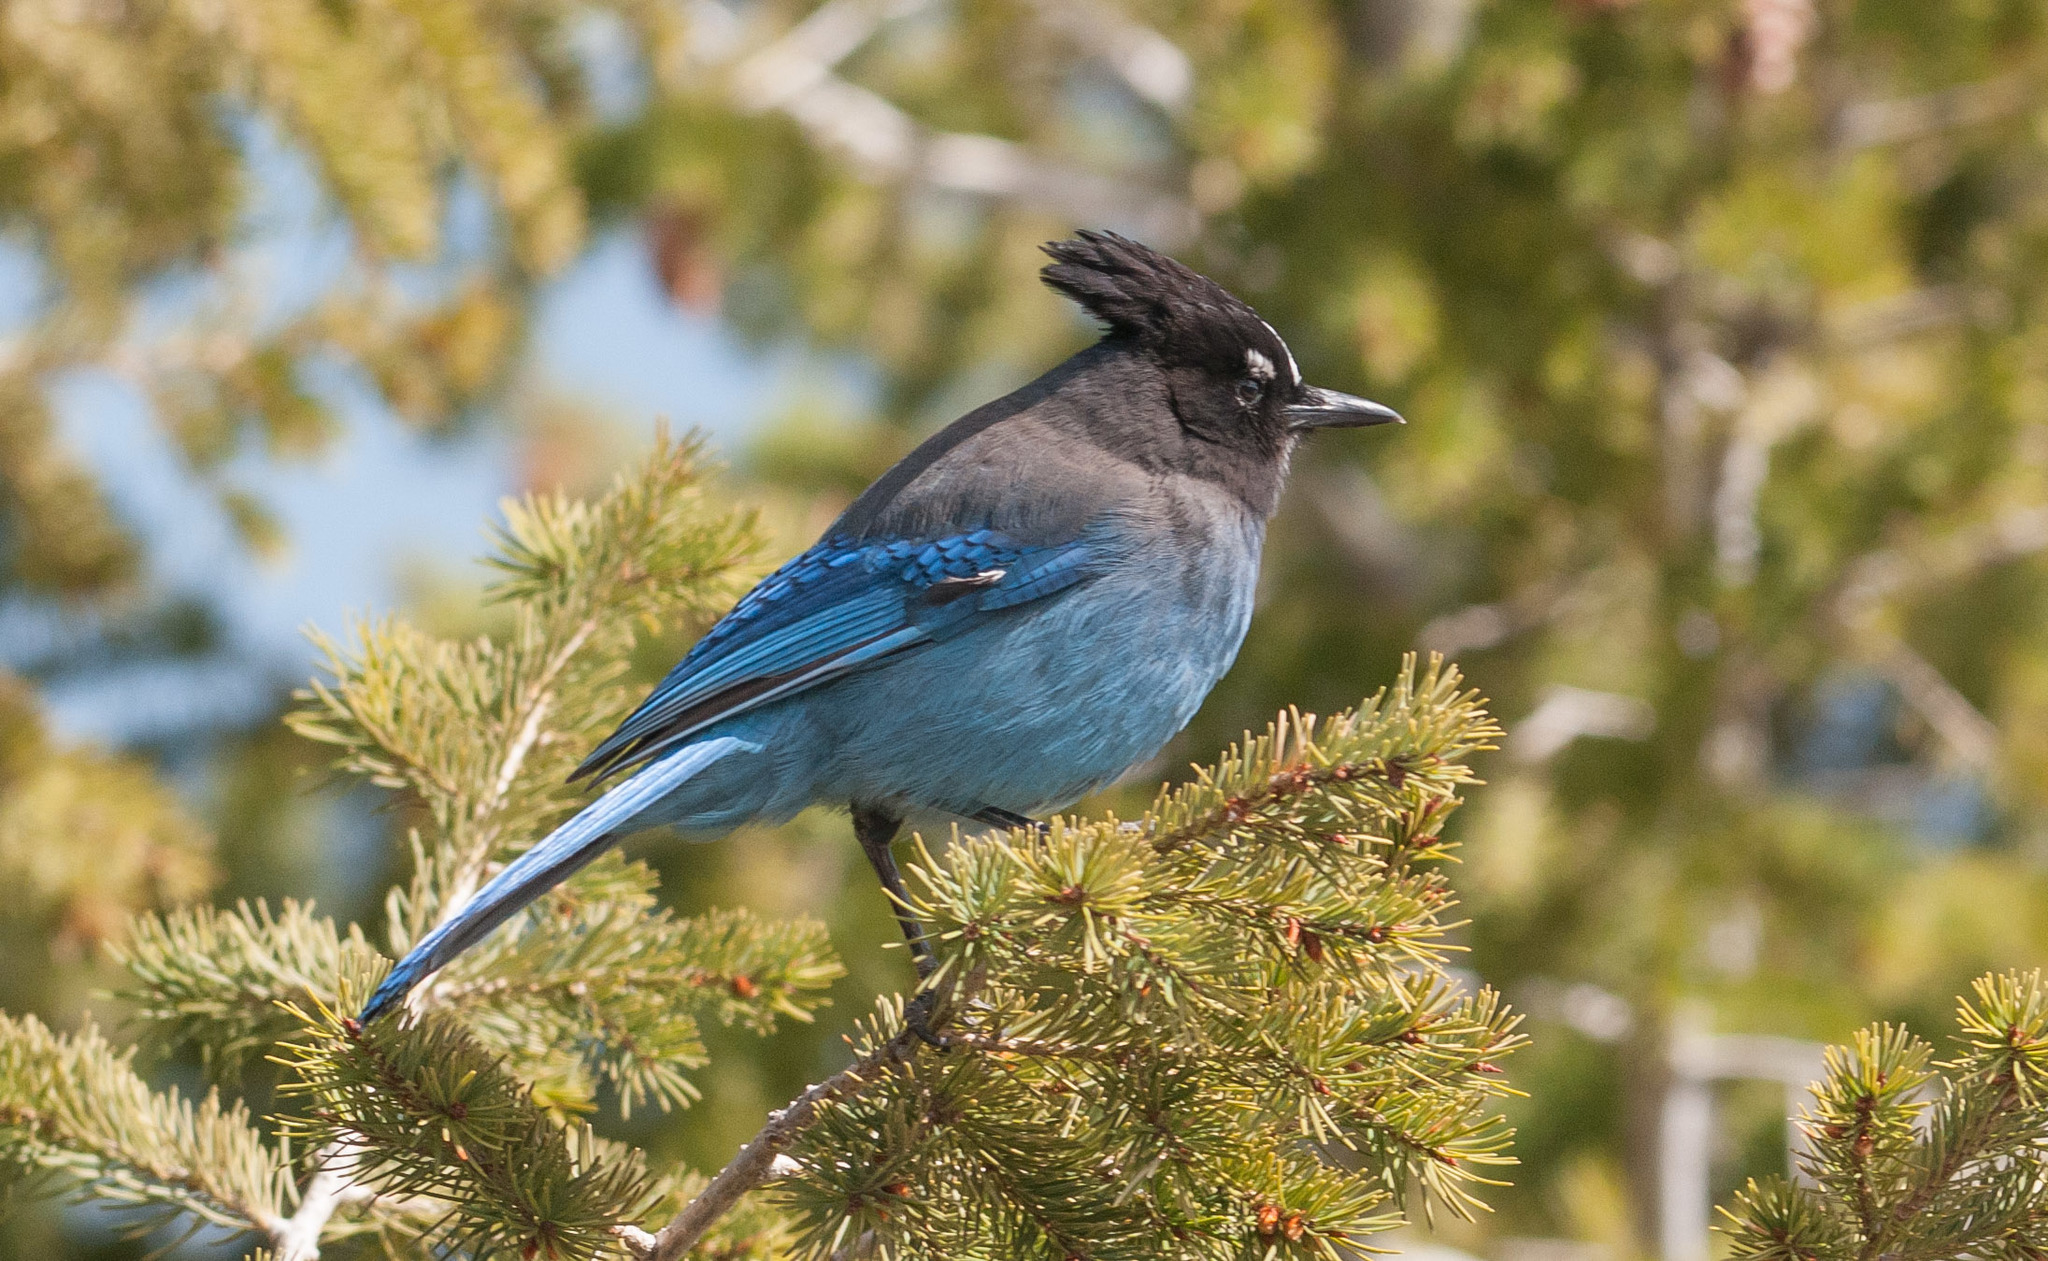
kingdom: Animalia
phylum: Chordata
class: Aves
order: Passeriformes
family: Corvidae
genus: Cyanocitta
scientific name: Cyanocitta stelleri
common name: Steller's jay
